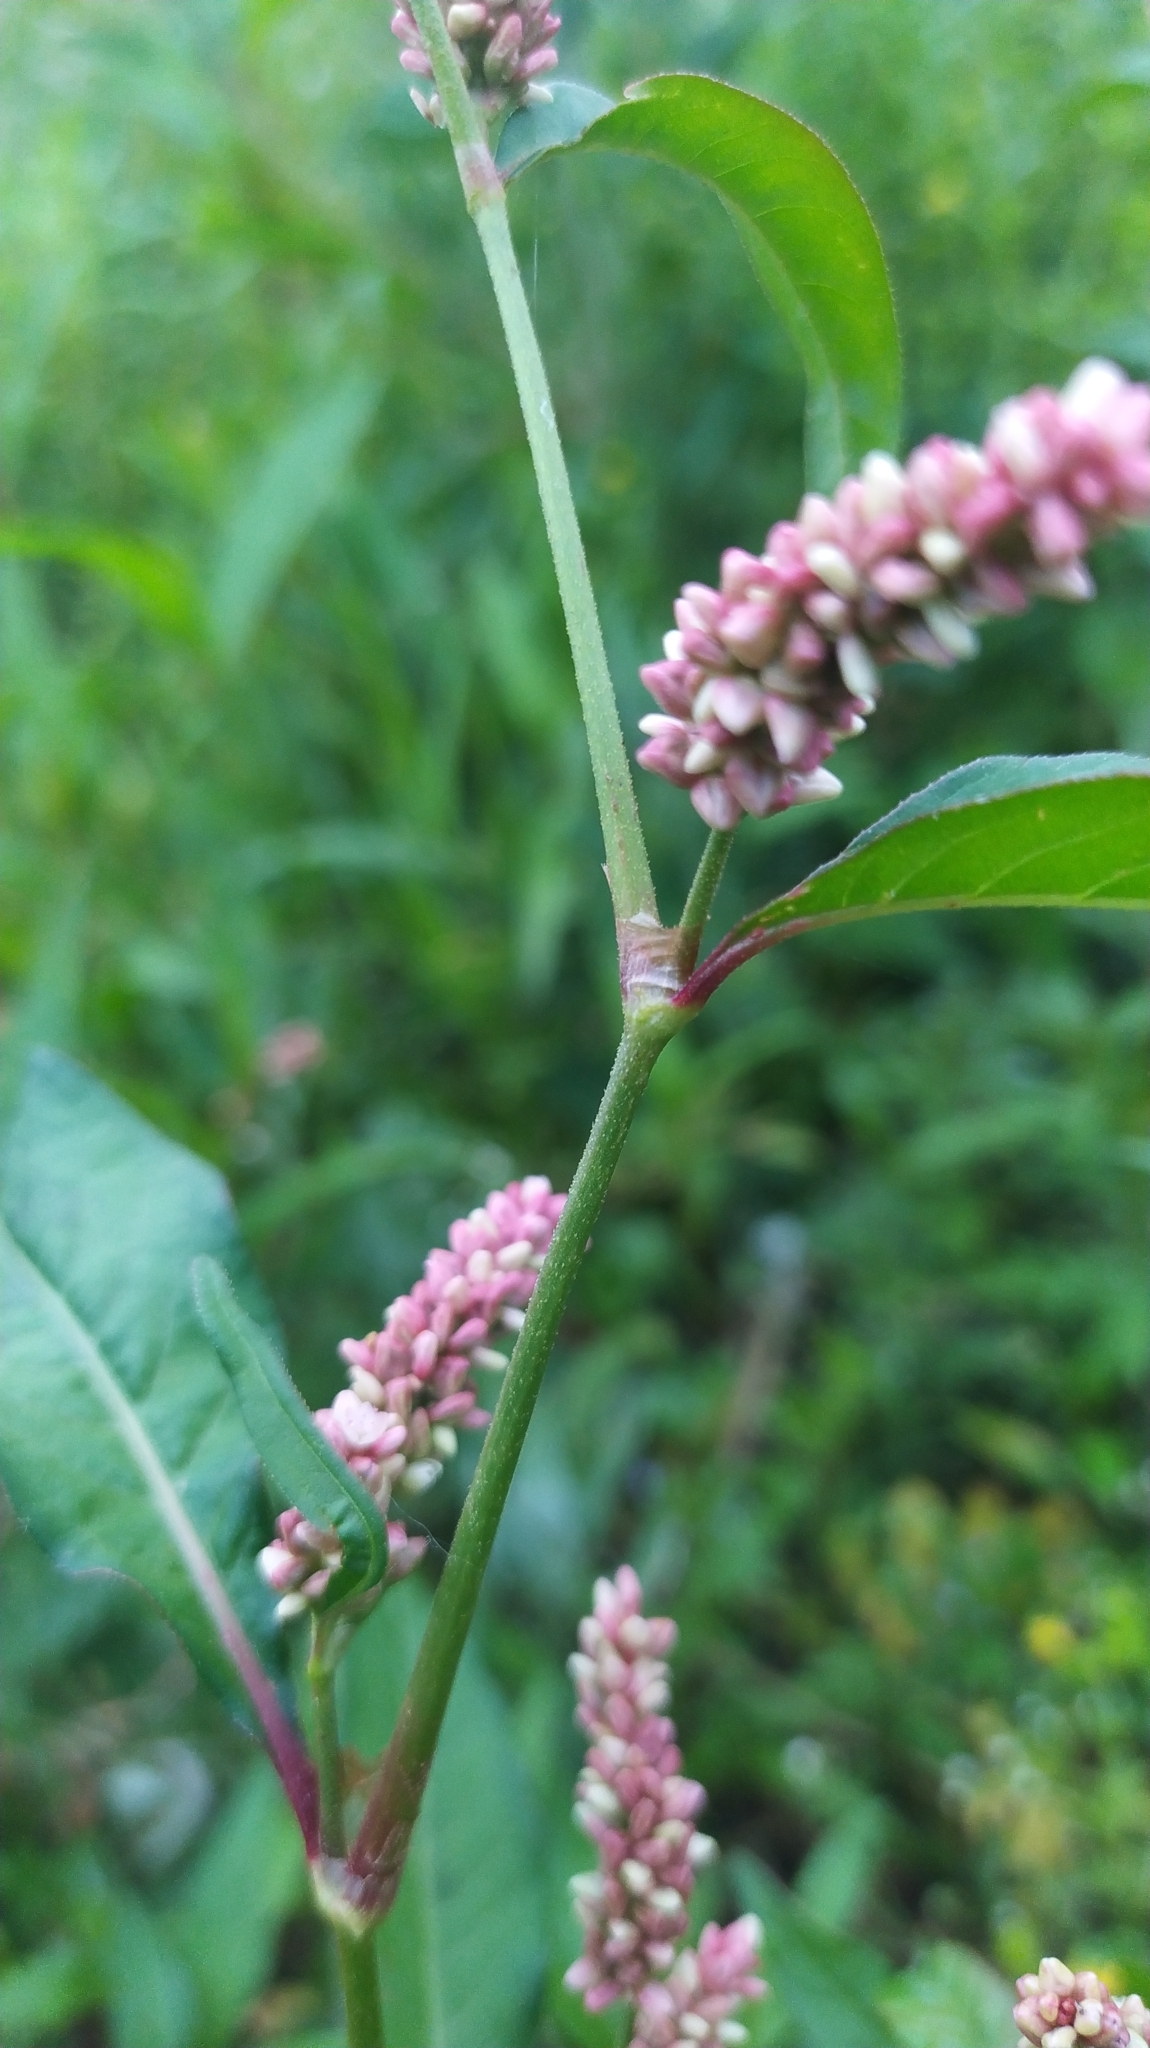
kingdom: Plantae
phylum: Tracheophyta
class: Magnoliopsida
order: Caryophyllales
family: Polygonaceae
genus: Persicaria
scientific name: Persicaria maculosa
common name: Redshank
